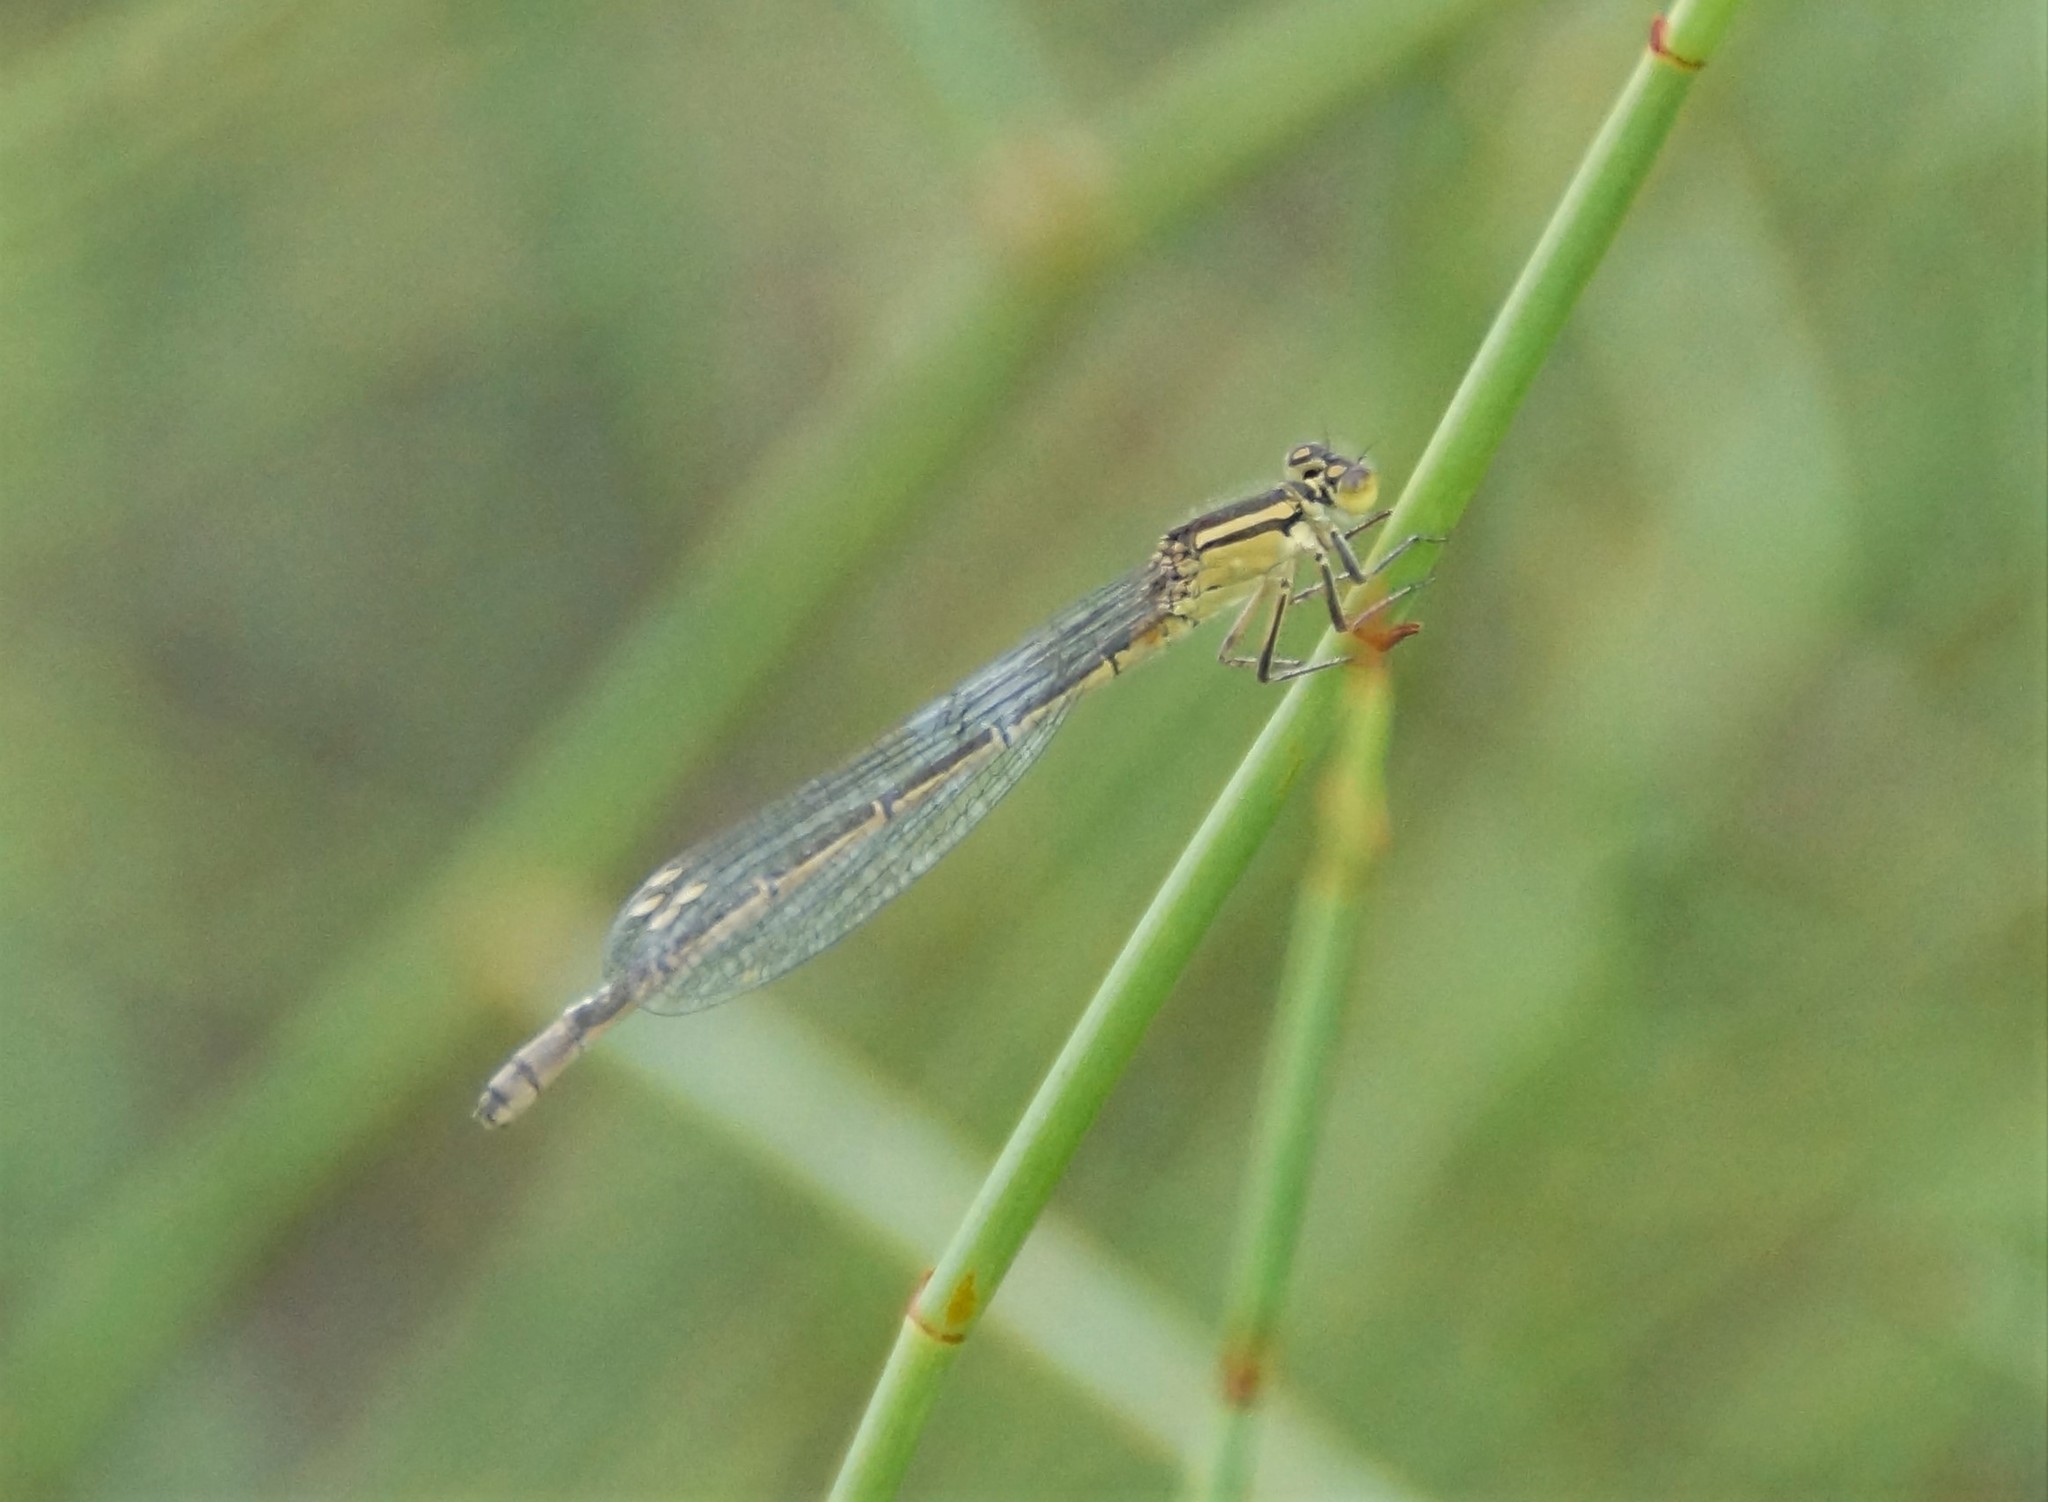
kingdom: Animalia
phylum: Arthropoda
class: Insecta
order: Odonata
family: Coenagrionidae
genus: Ischnura
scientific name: Ischnura heterosticta
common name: Common bluetail
